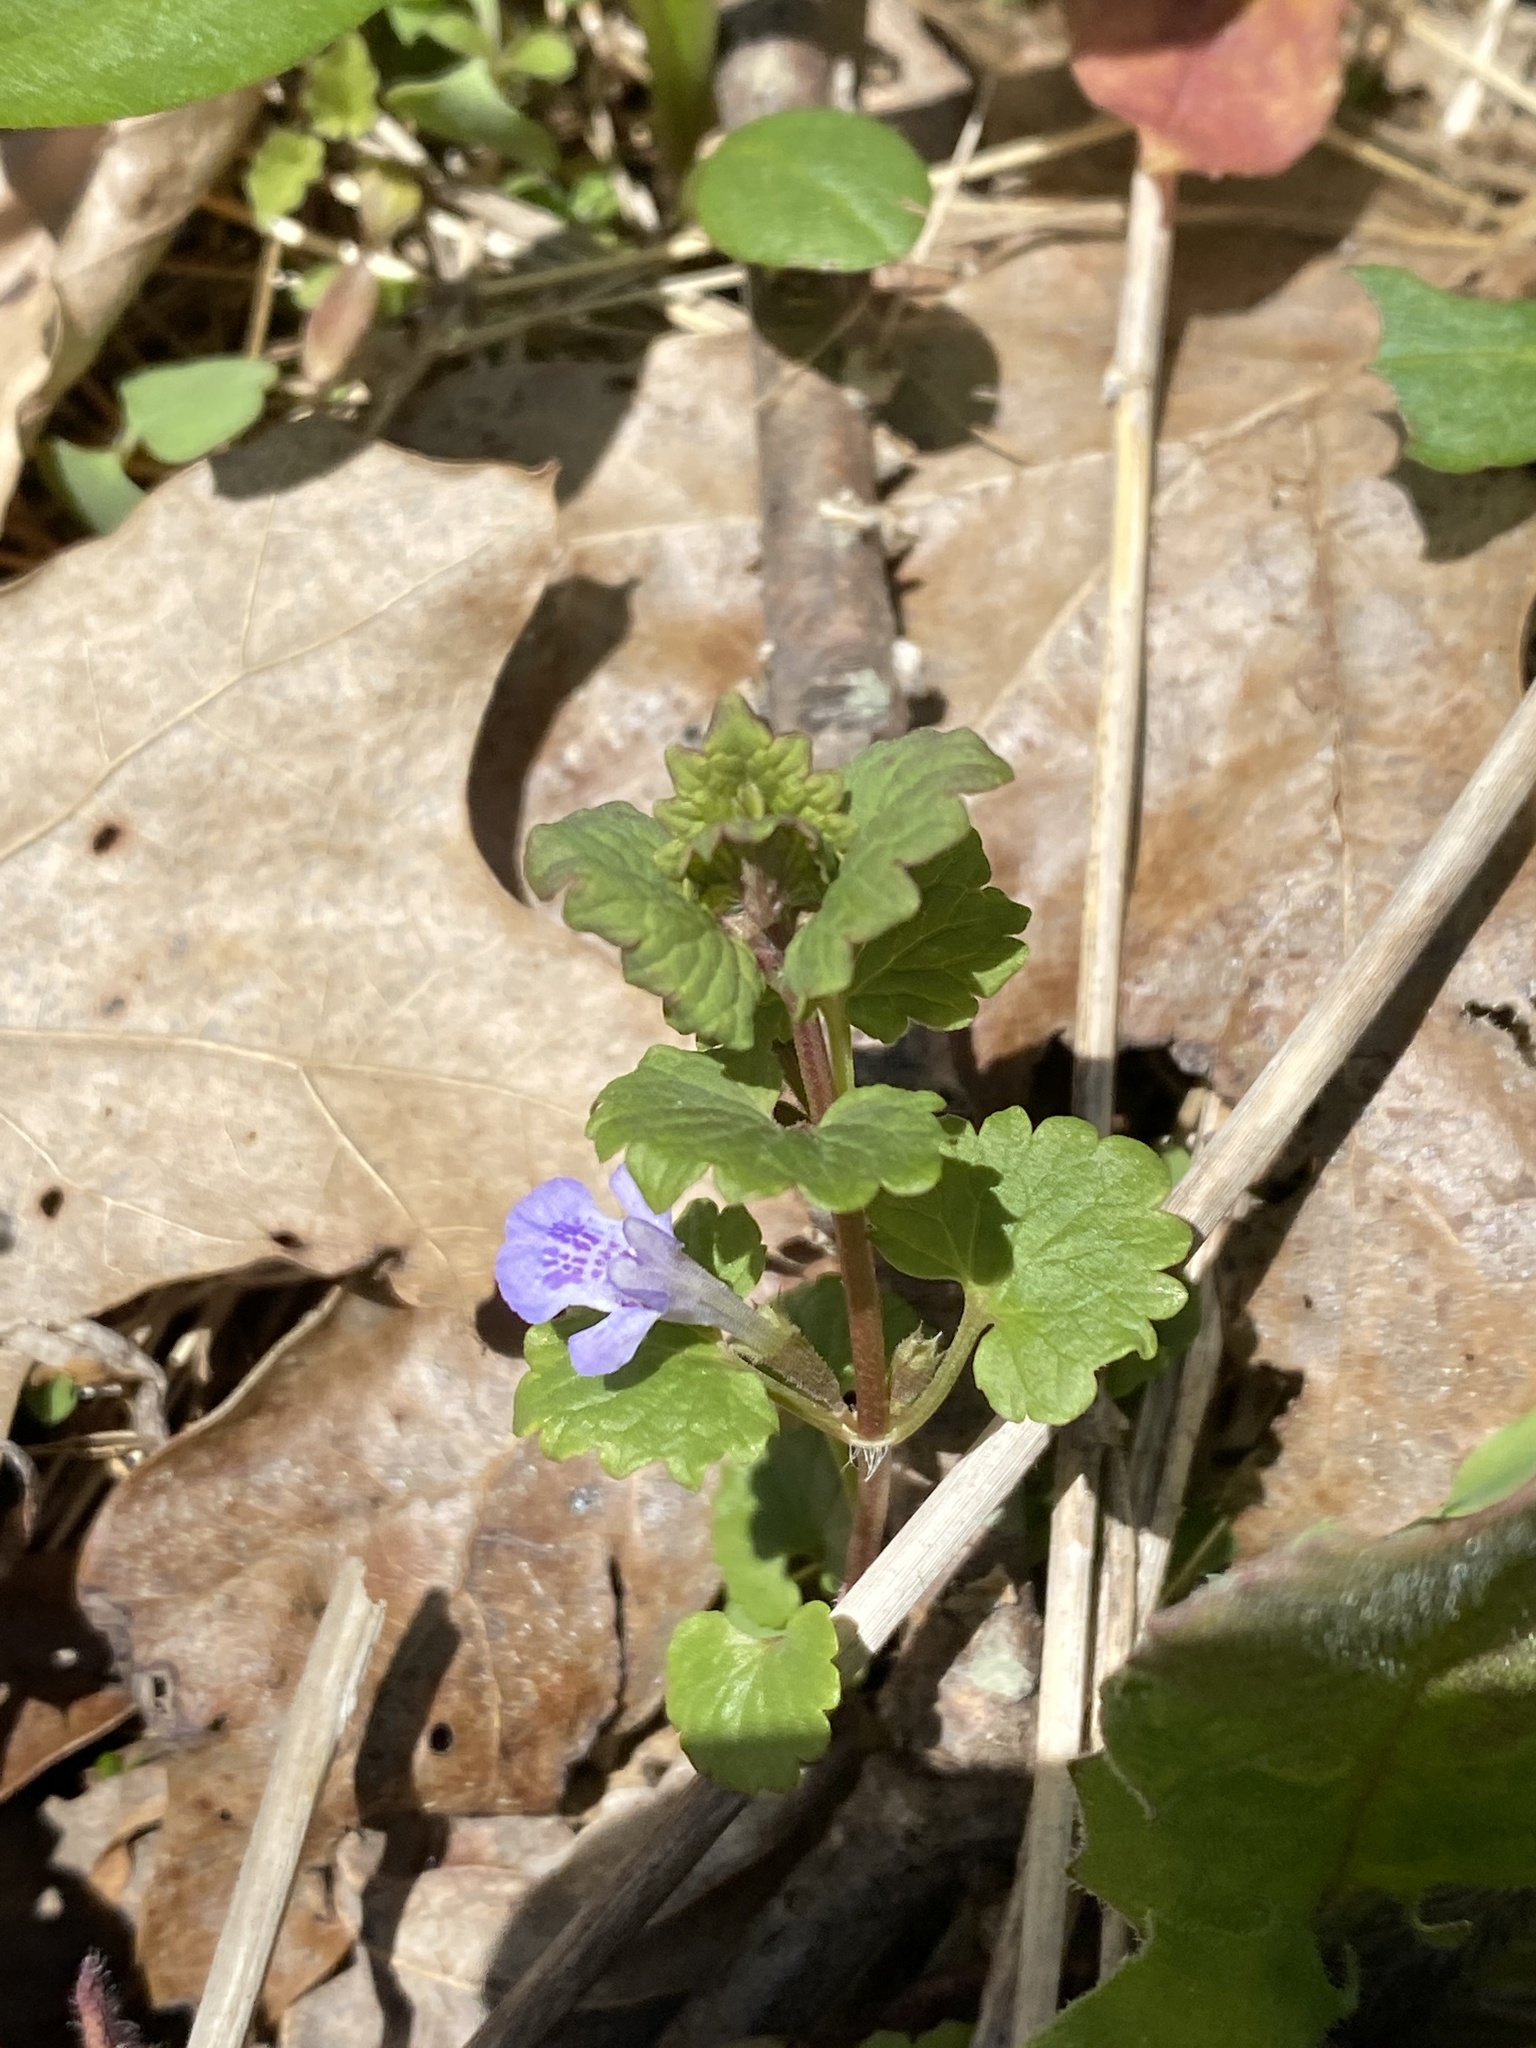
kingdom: Plantae
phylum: Tracheophyta
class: Magnoliopsida
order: Lamiales
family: Lamiaceae
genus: Glechoma
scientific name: Glechoma hederacea
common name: Ground ivy
